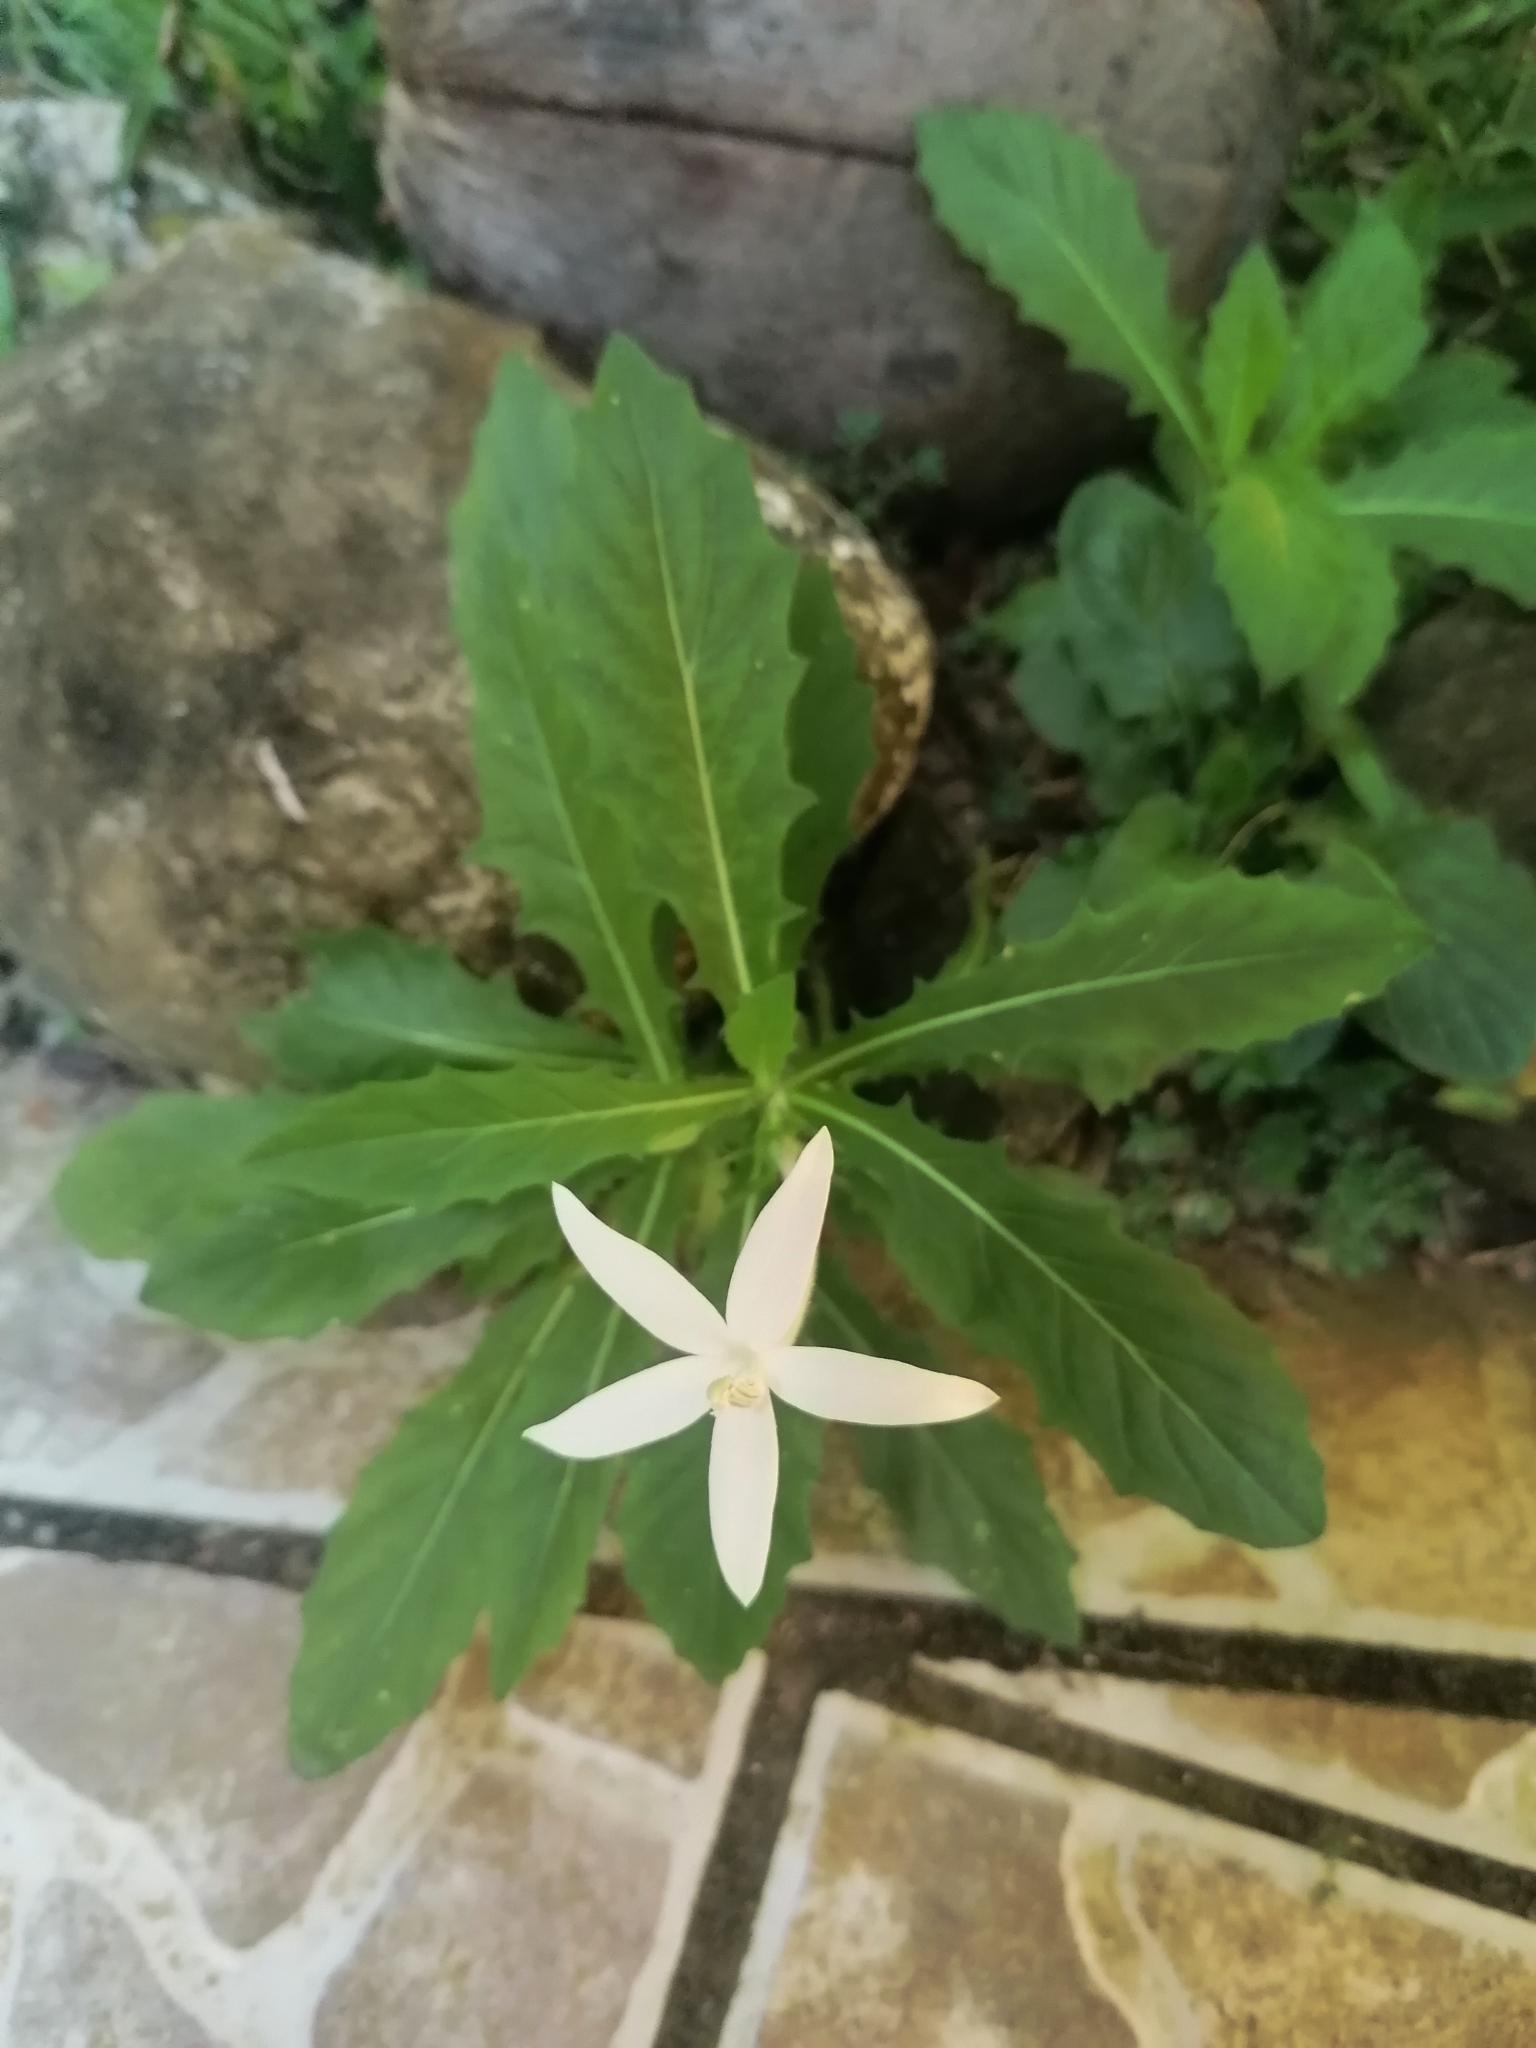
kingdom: Plantae
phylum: Tracheophyta
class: Magnoliopsida
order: Asterales
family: Campanulaceae
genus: Hippobroma
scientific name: Hippobroma longiflora
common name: Madamfate
